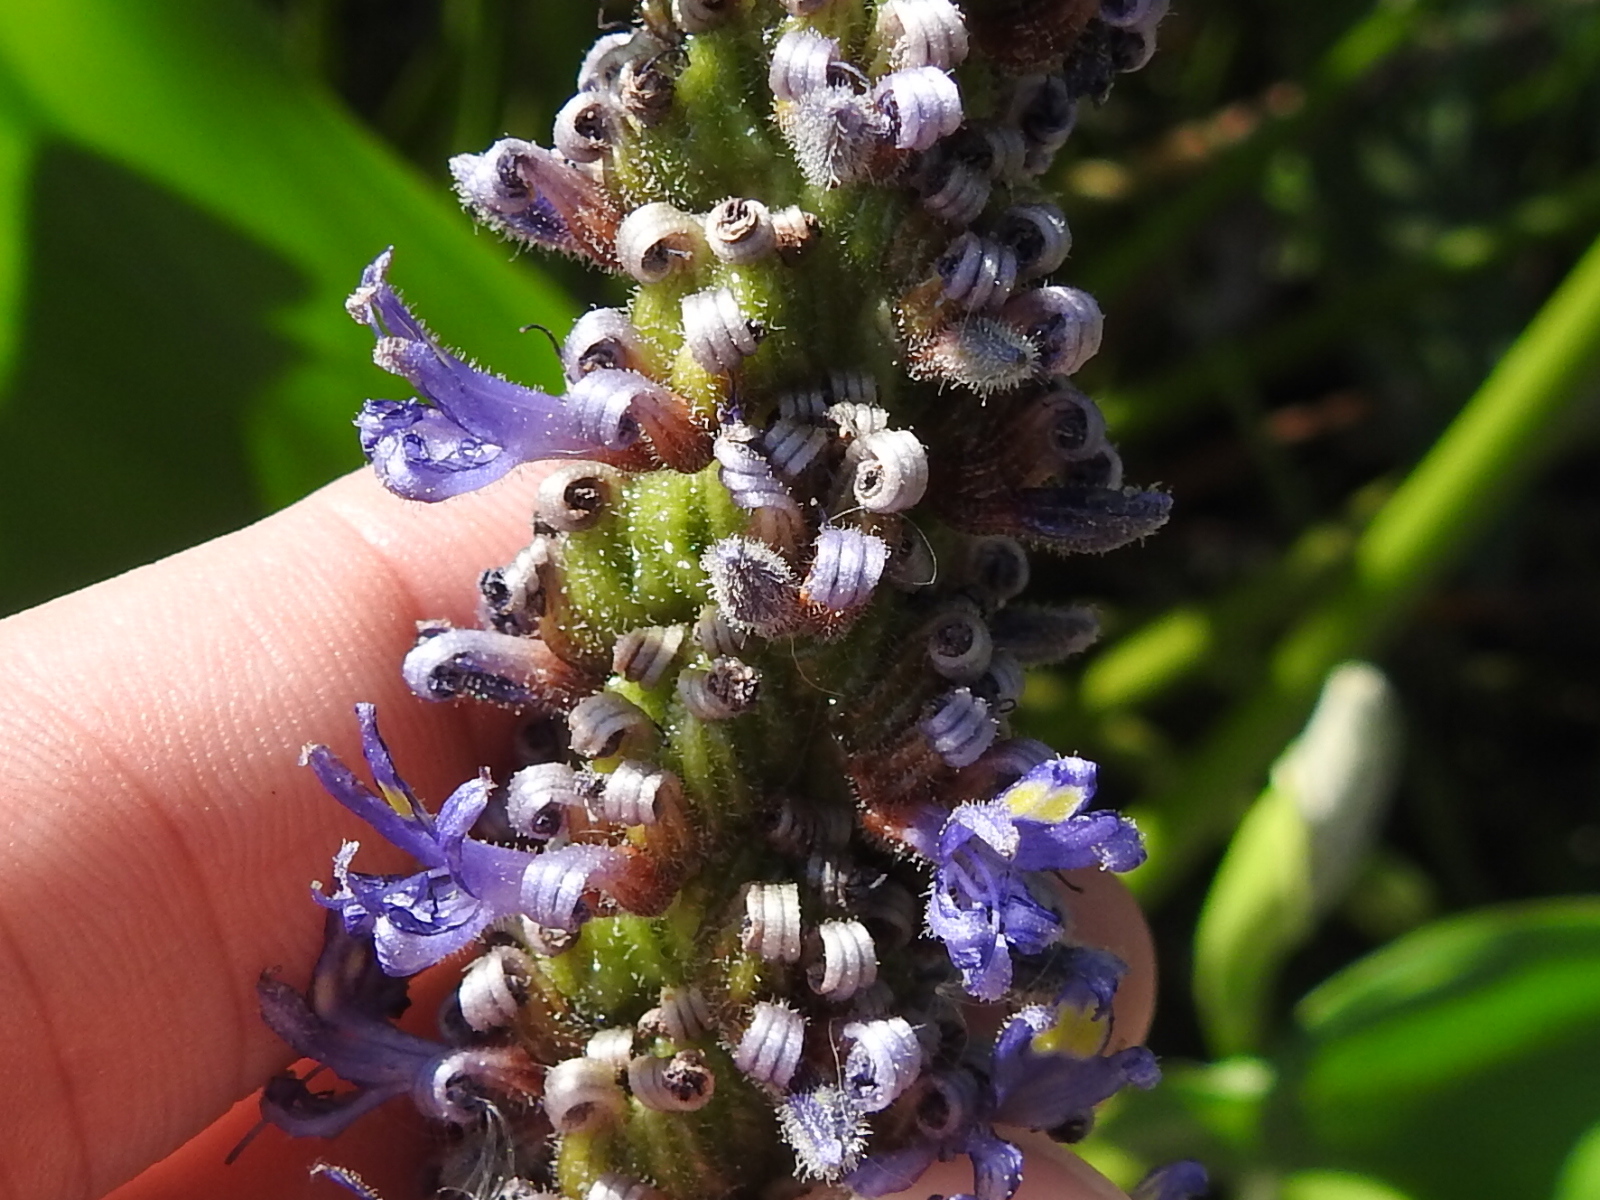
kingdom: Plantae
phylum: Tracheophyta
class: Liliopsida
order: Commelinales
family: Pontederiaceae
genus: Pontederia
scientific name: Pontederia cordata
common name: Pickerelweed
